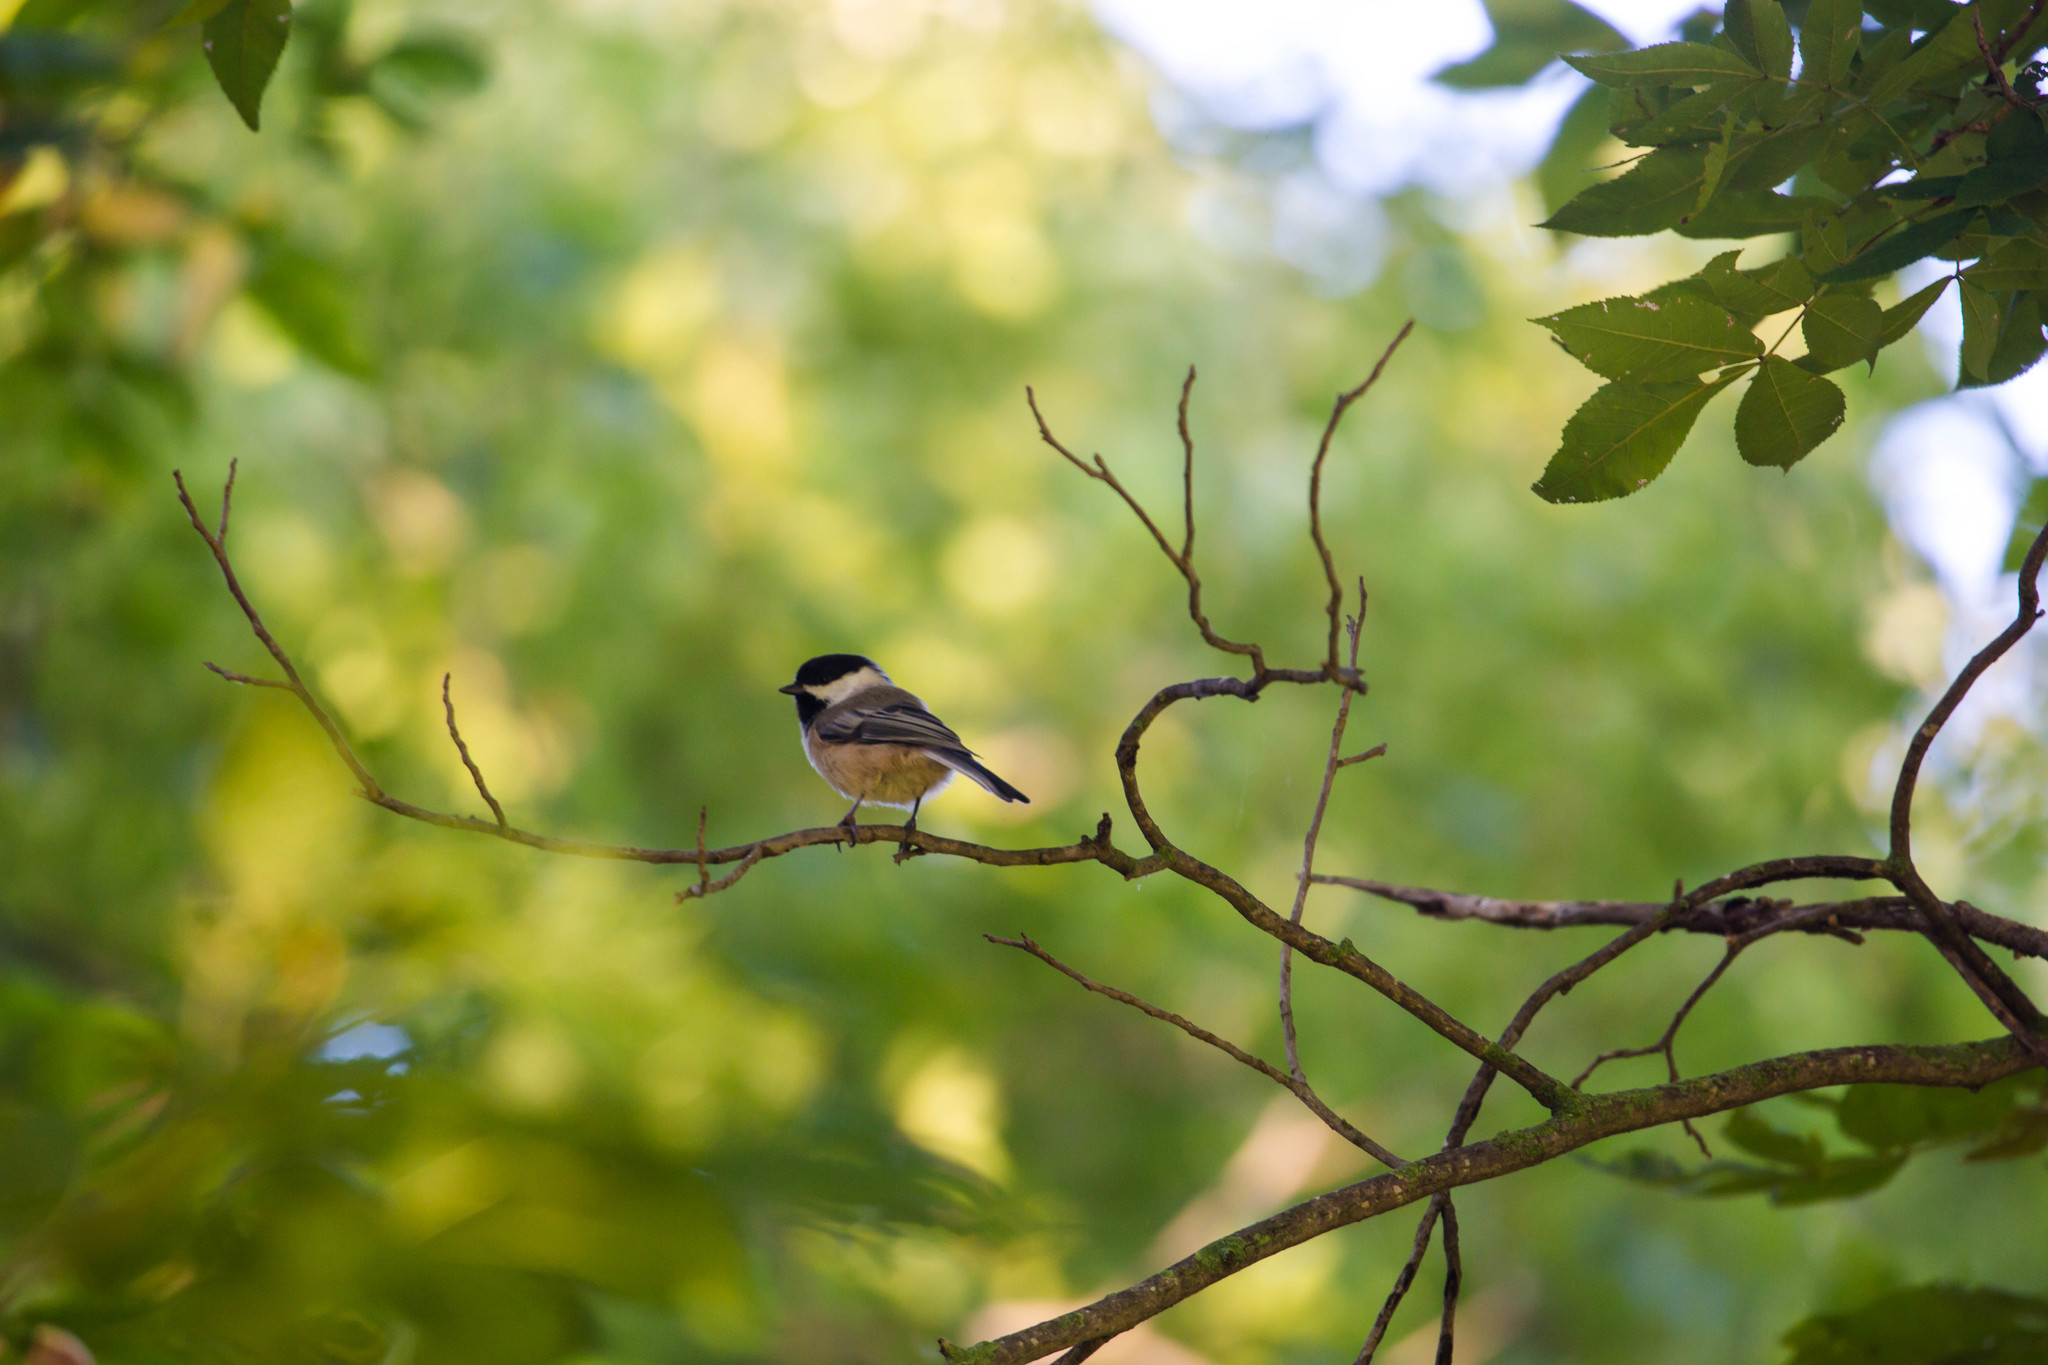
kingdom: Animalia
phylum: Chordata
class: Aves
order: Passeriformes
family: Paridae
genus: Poecile
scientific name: Poecile atricapillus
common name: Black-capped chickadee
